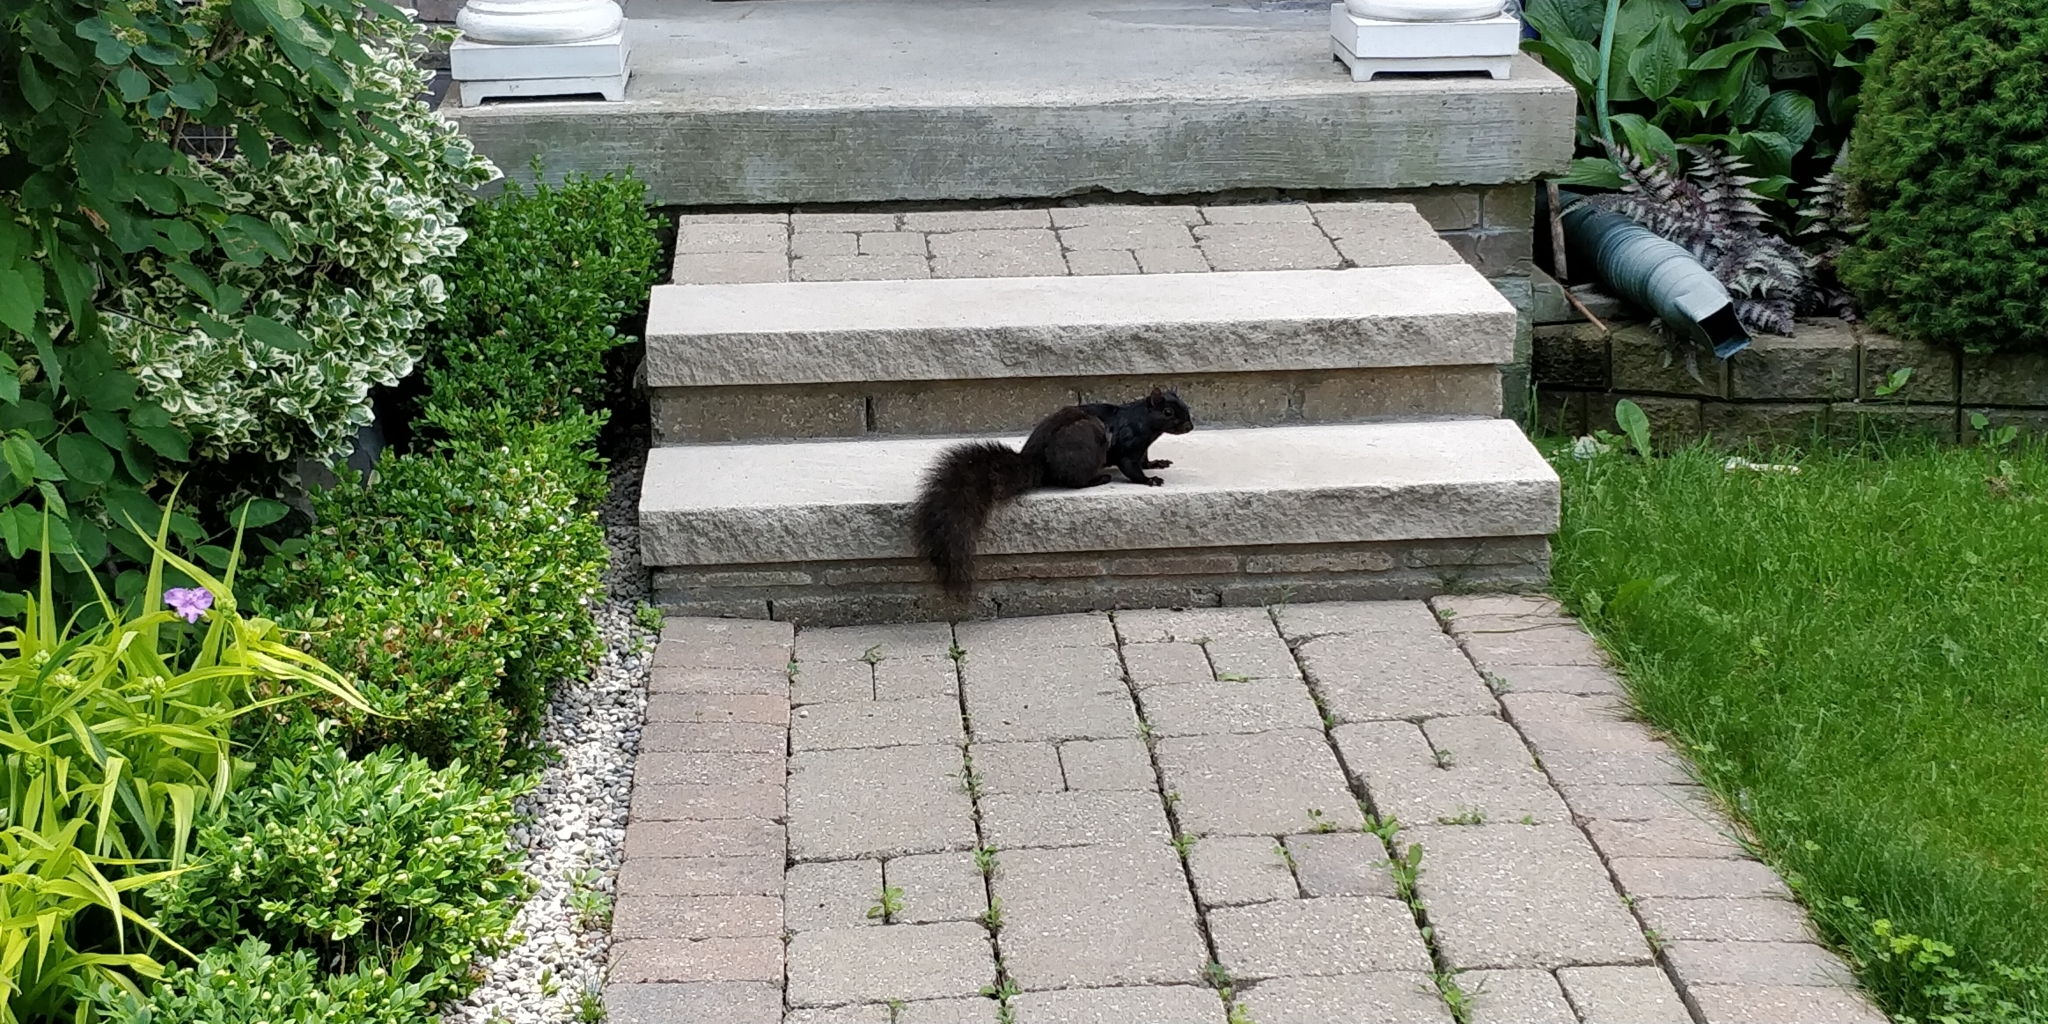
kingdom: Animalia
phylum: Chordata
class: Mammalia
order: Rodentia
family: Sciuridae
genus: Sciurus
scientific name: Sciurus carolinensis
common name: Eastern gray squirrel
